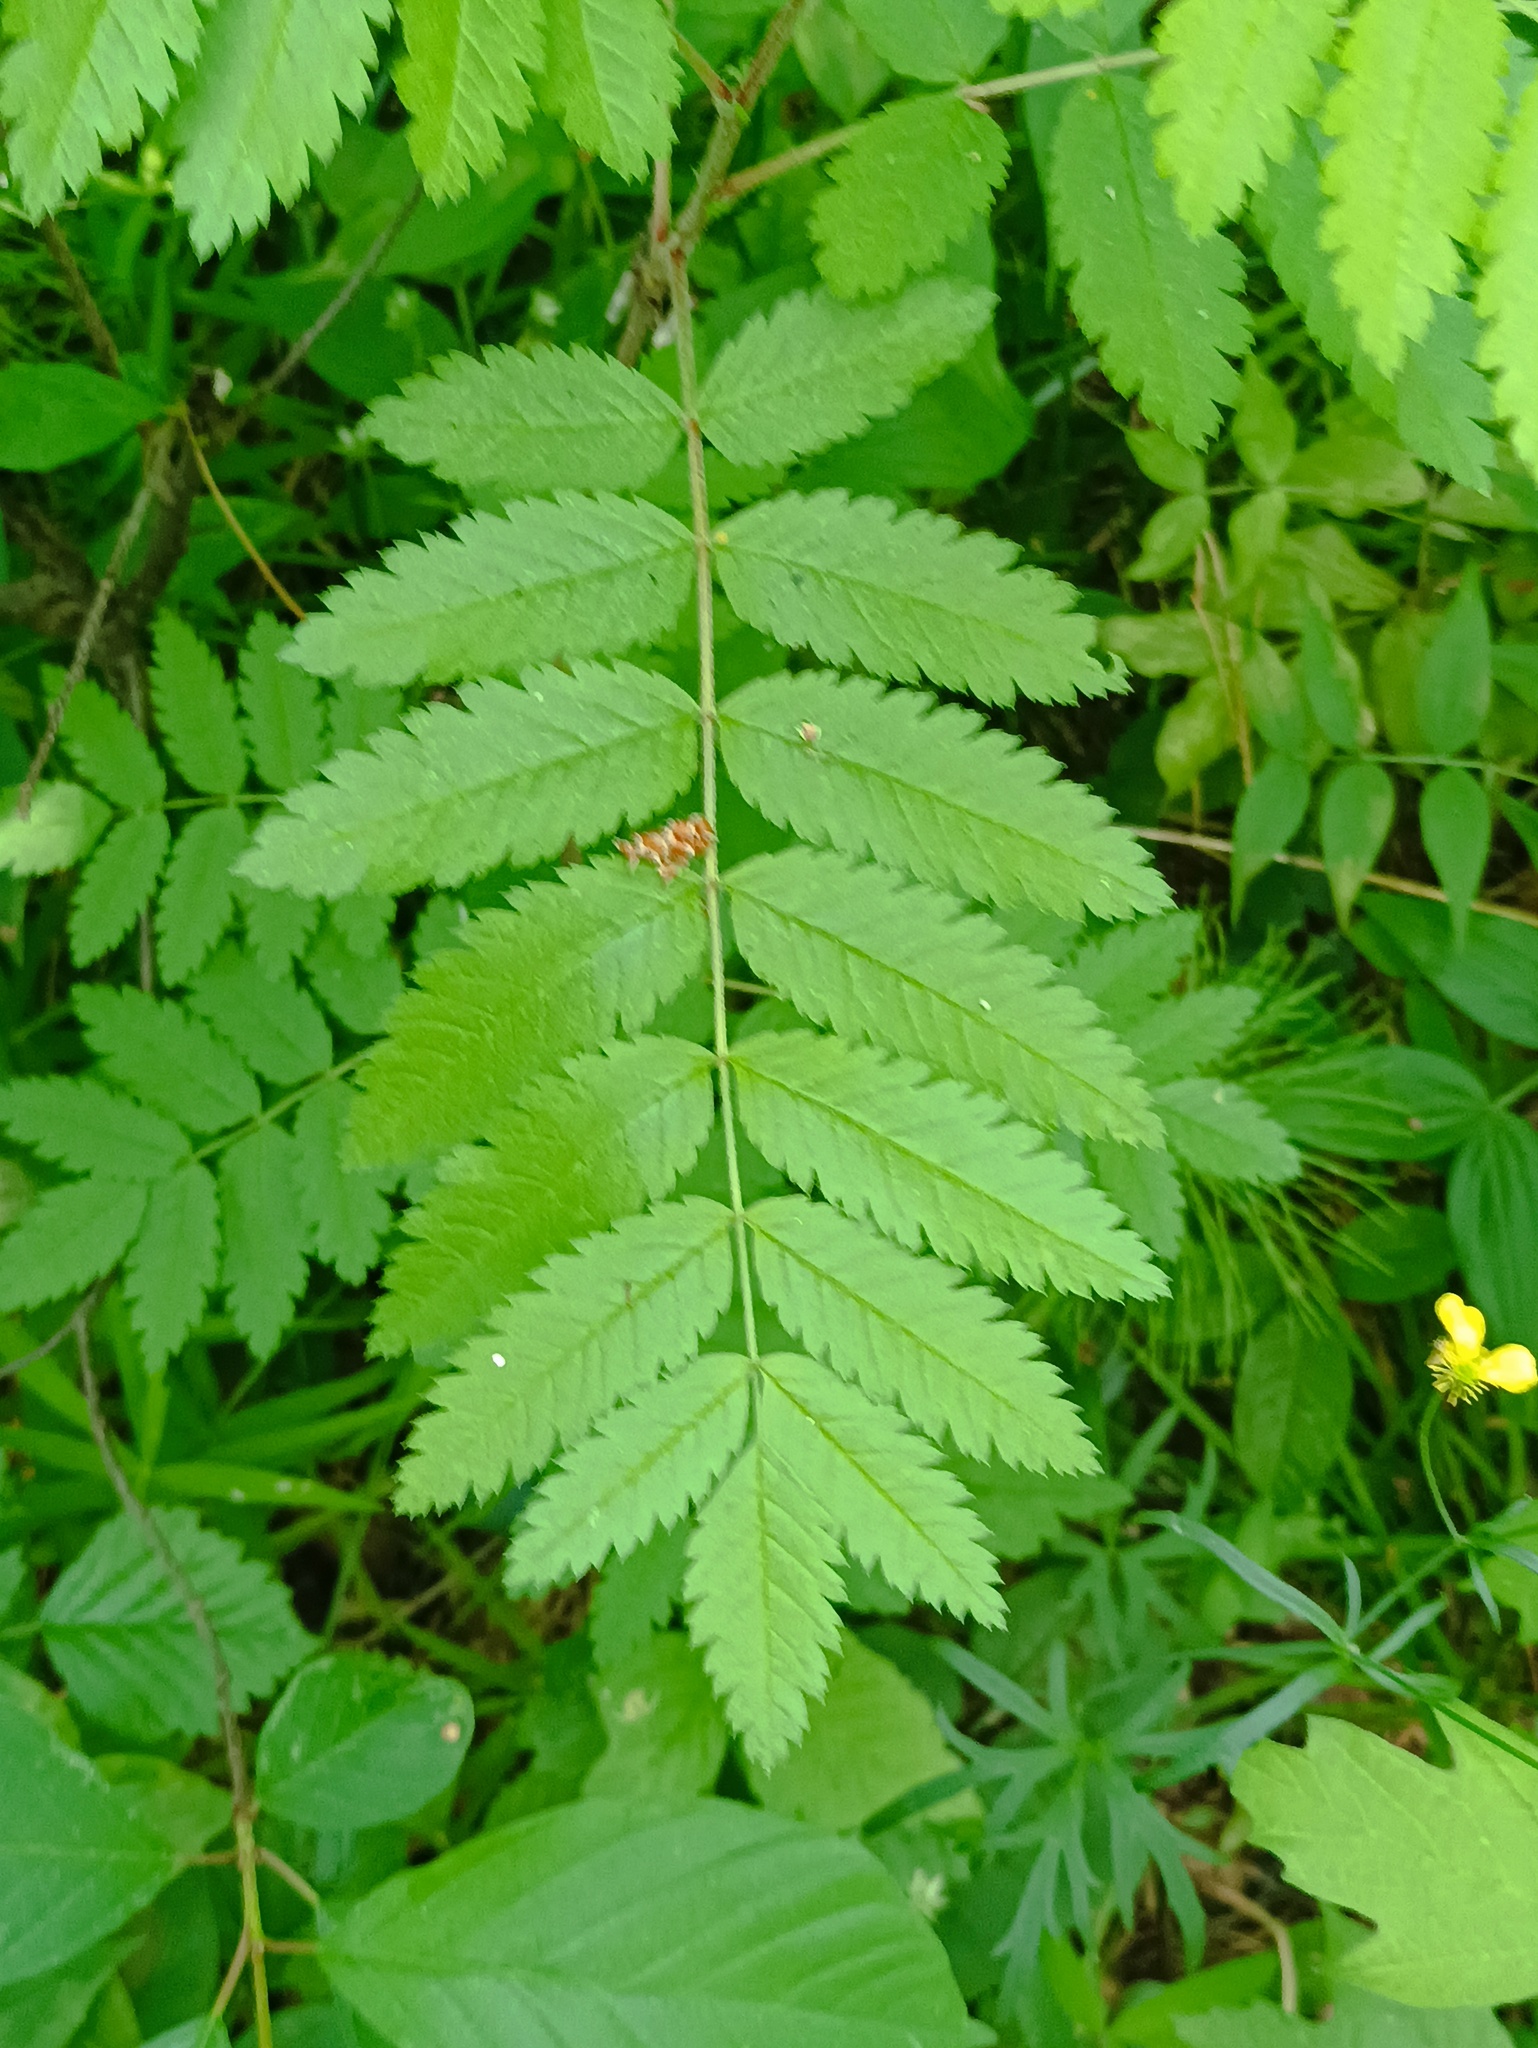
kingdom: Plantae
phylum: Tracheophyta
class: Magnoliopsida
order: Rosales
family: Rosaceae
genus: Sorbus
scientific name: Sorbus aucuparia
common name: Rowan
